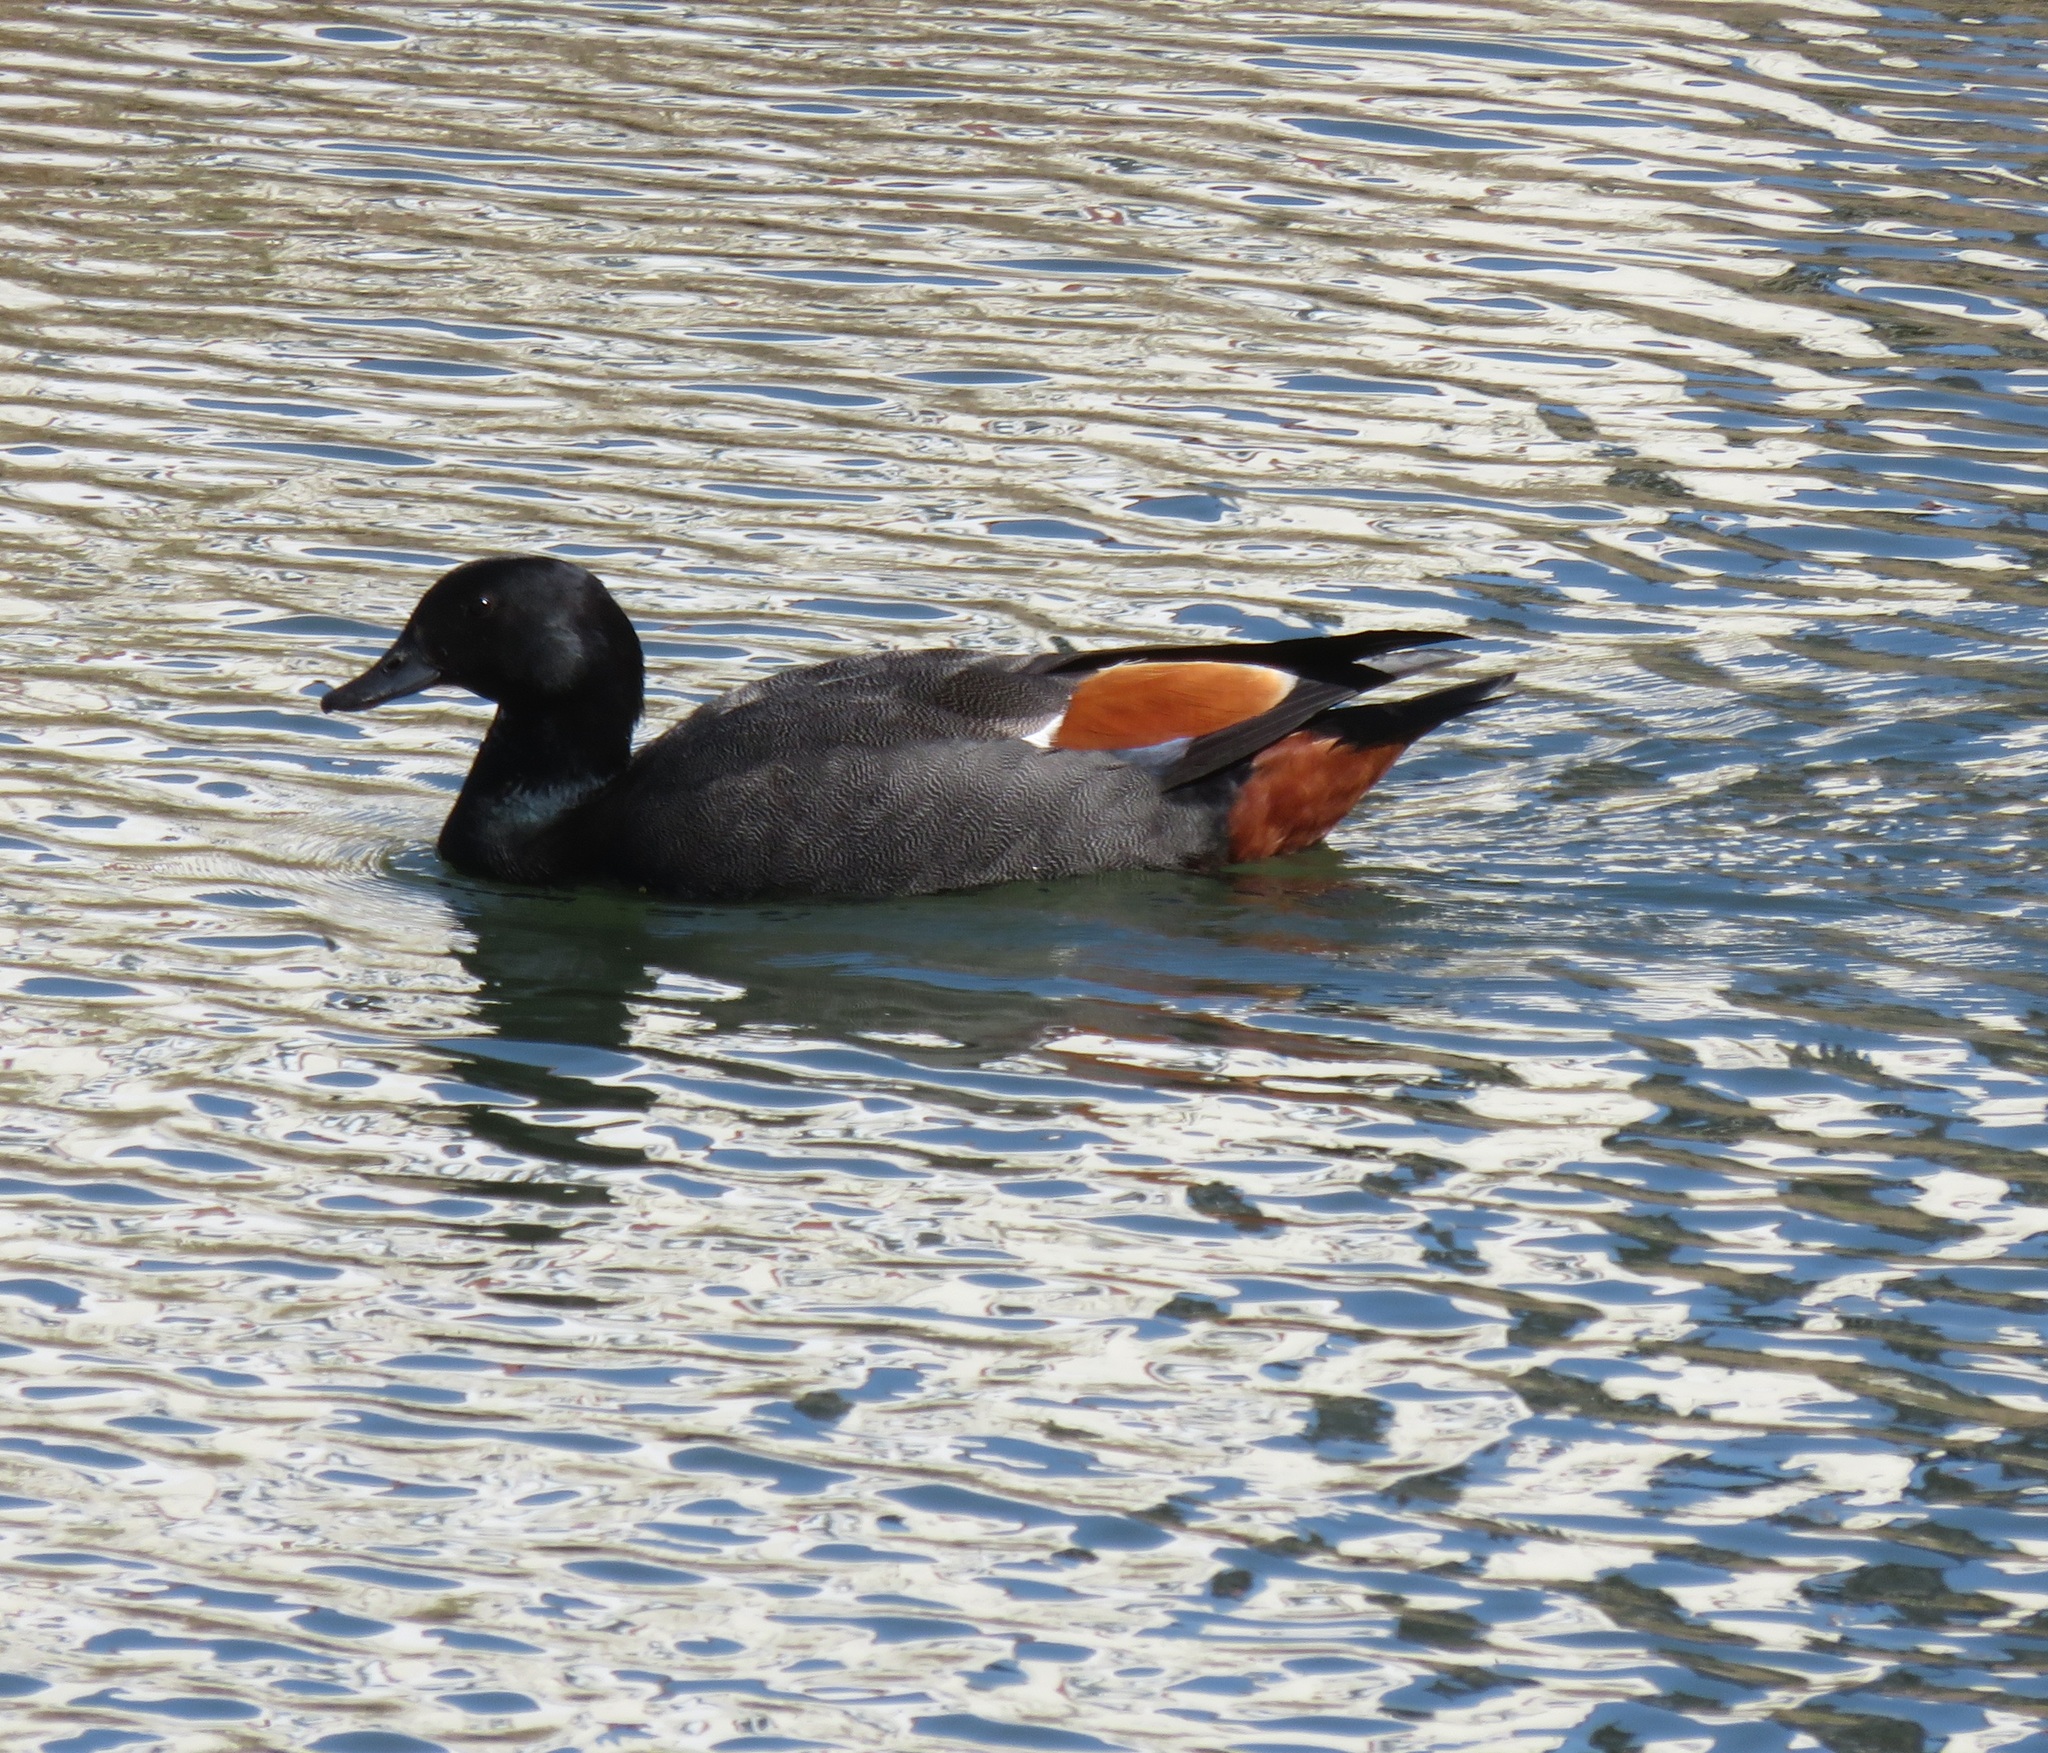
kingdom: Animalia
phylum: Chordata
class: Aves
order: Anseriformes
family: Anatidae
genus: Tadorna
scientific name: Tadorna variegata
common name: Paradise shelduck
